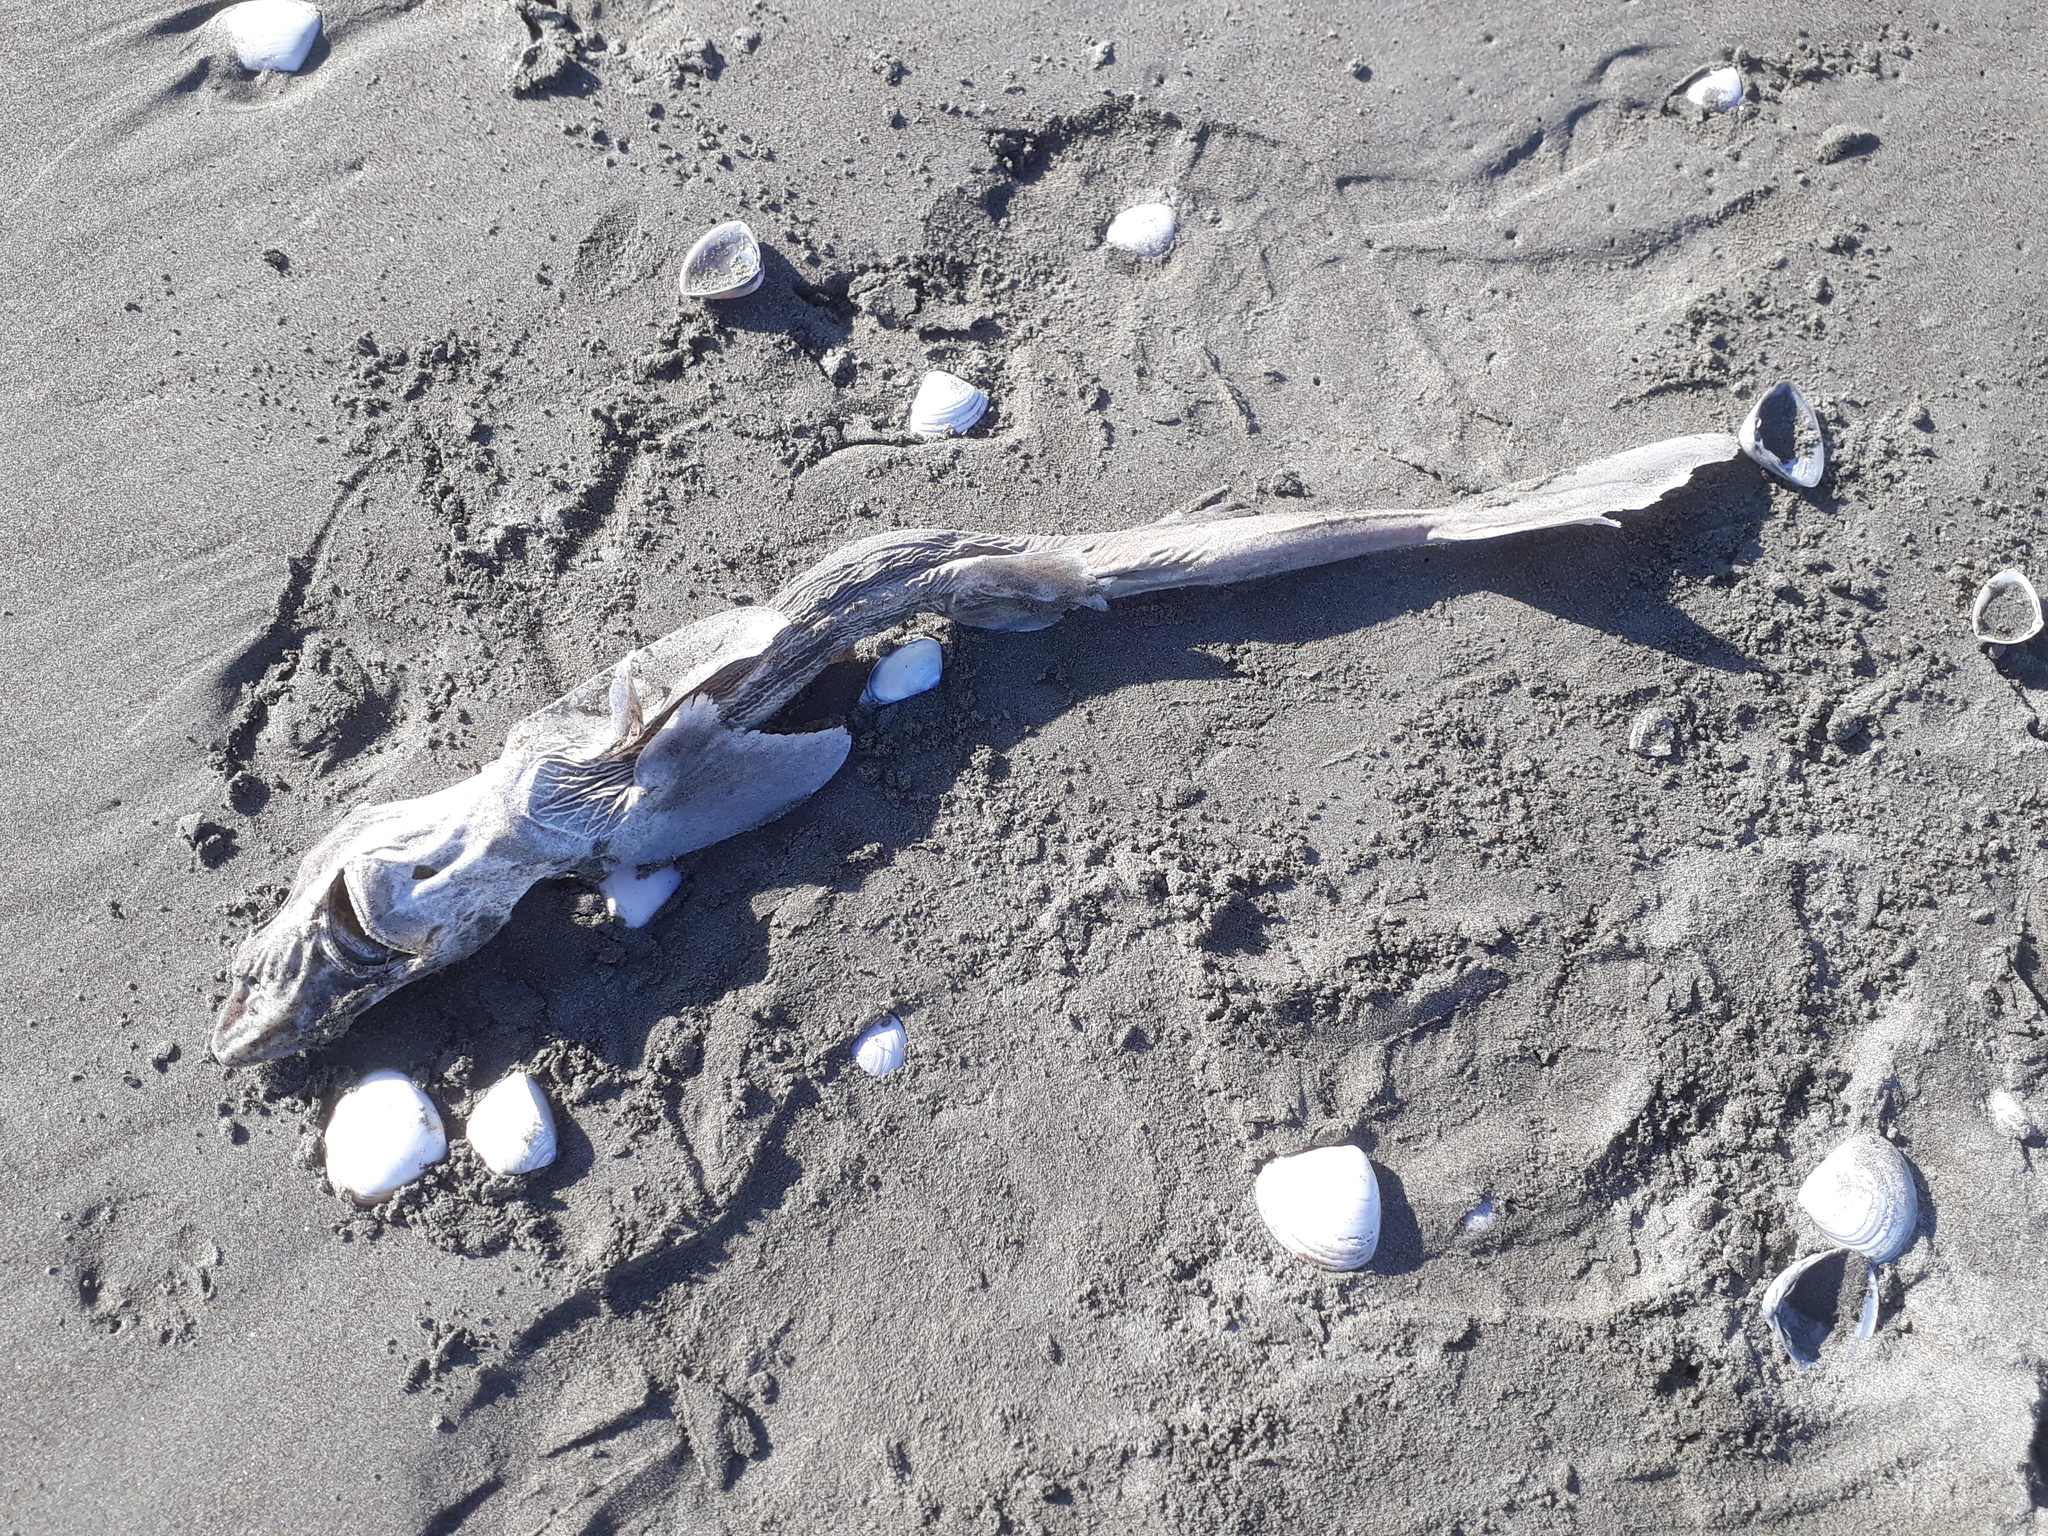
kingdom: Animalia
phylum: Chordata
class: Elasmobranchii
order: Squaliformes
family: Squalidae
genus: Squalus
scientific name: Squalus griffini
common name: Northern spiny dogfish
